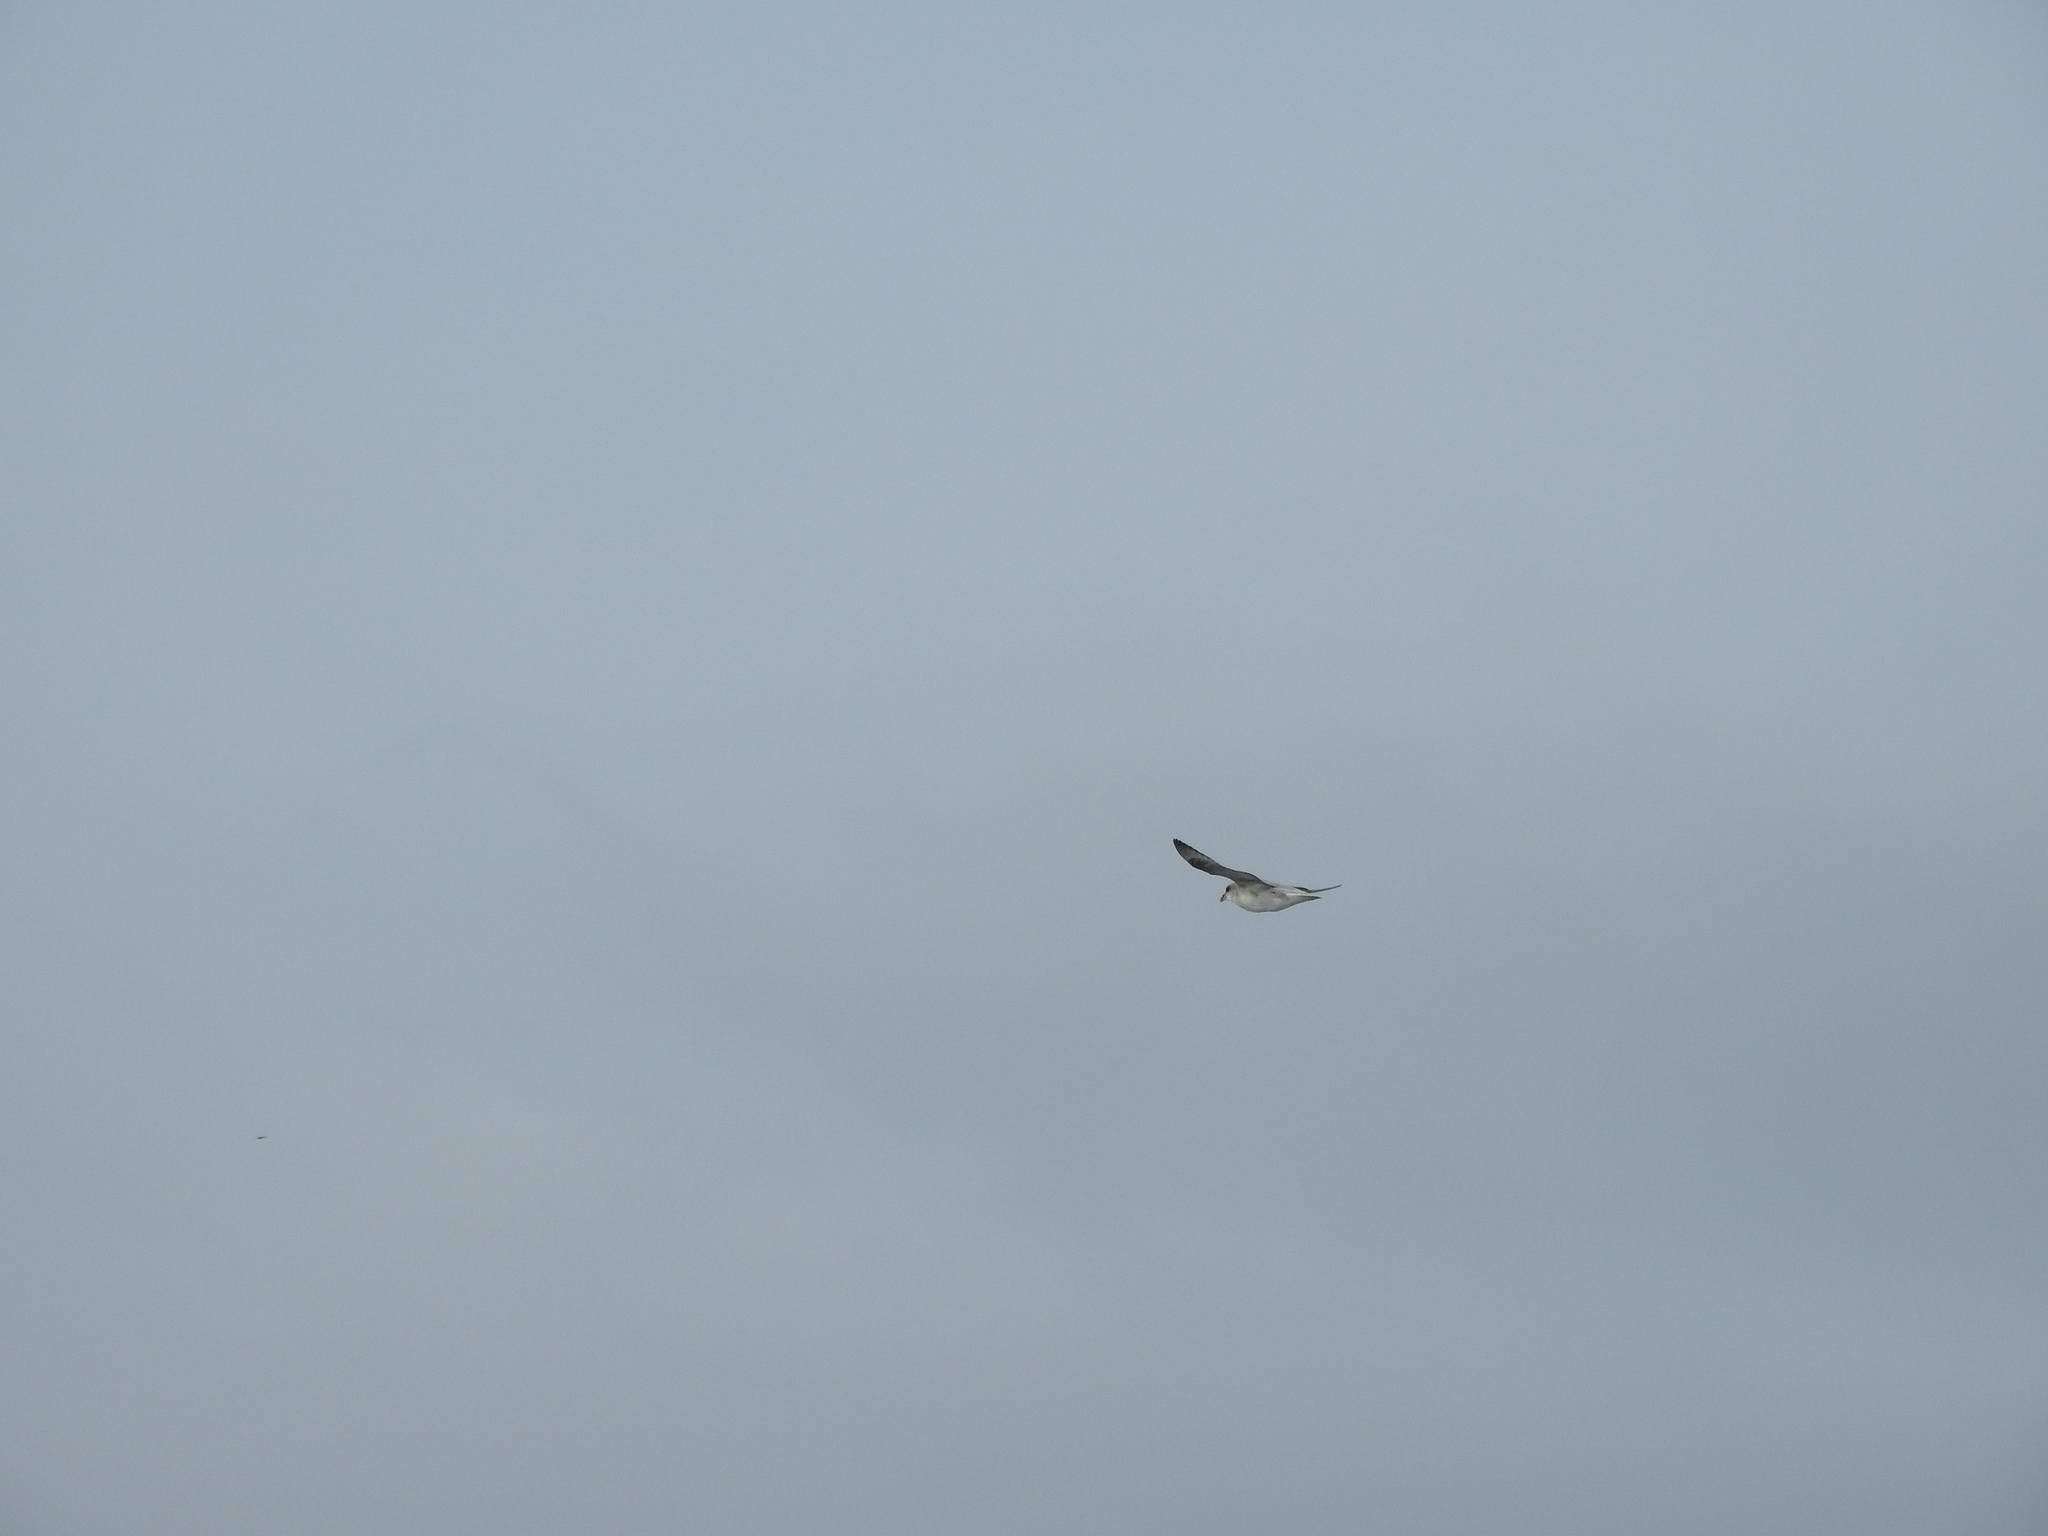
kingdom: Animalia
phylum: Chordata
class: Aves
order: Procellariiformes
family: Procellariidae
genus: Fulmarus
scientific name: Fulmarus glacialis
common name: Northern fulmar
